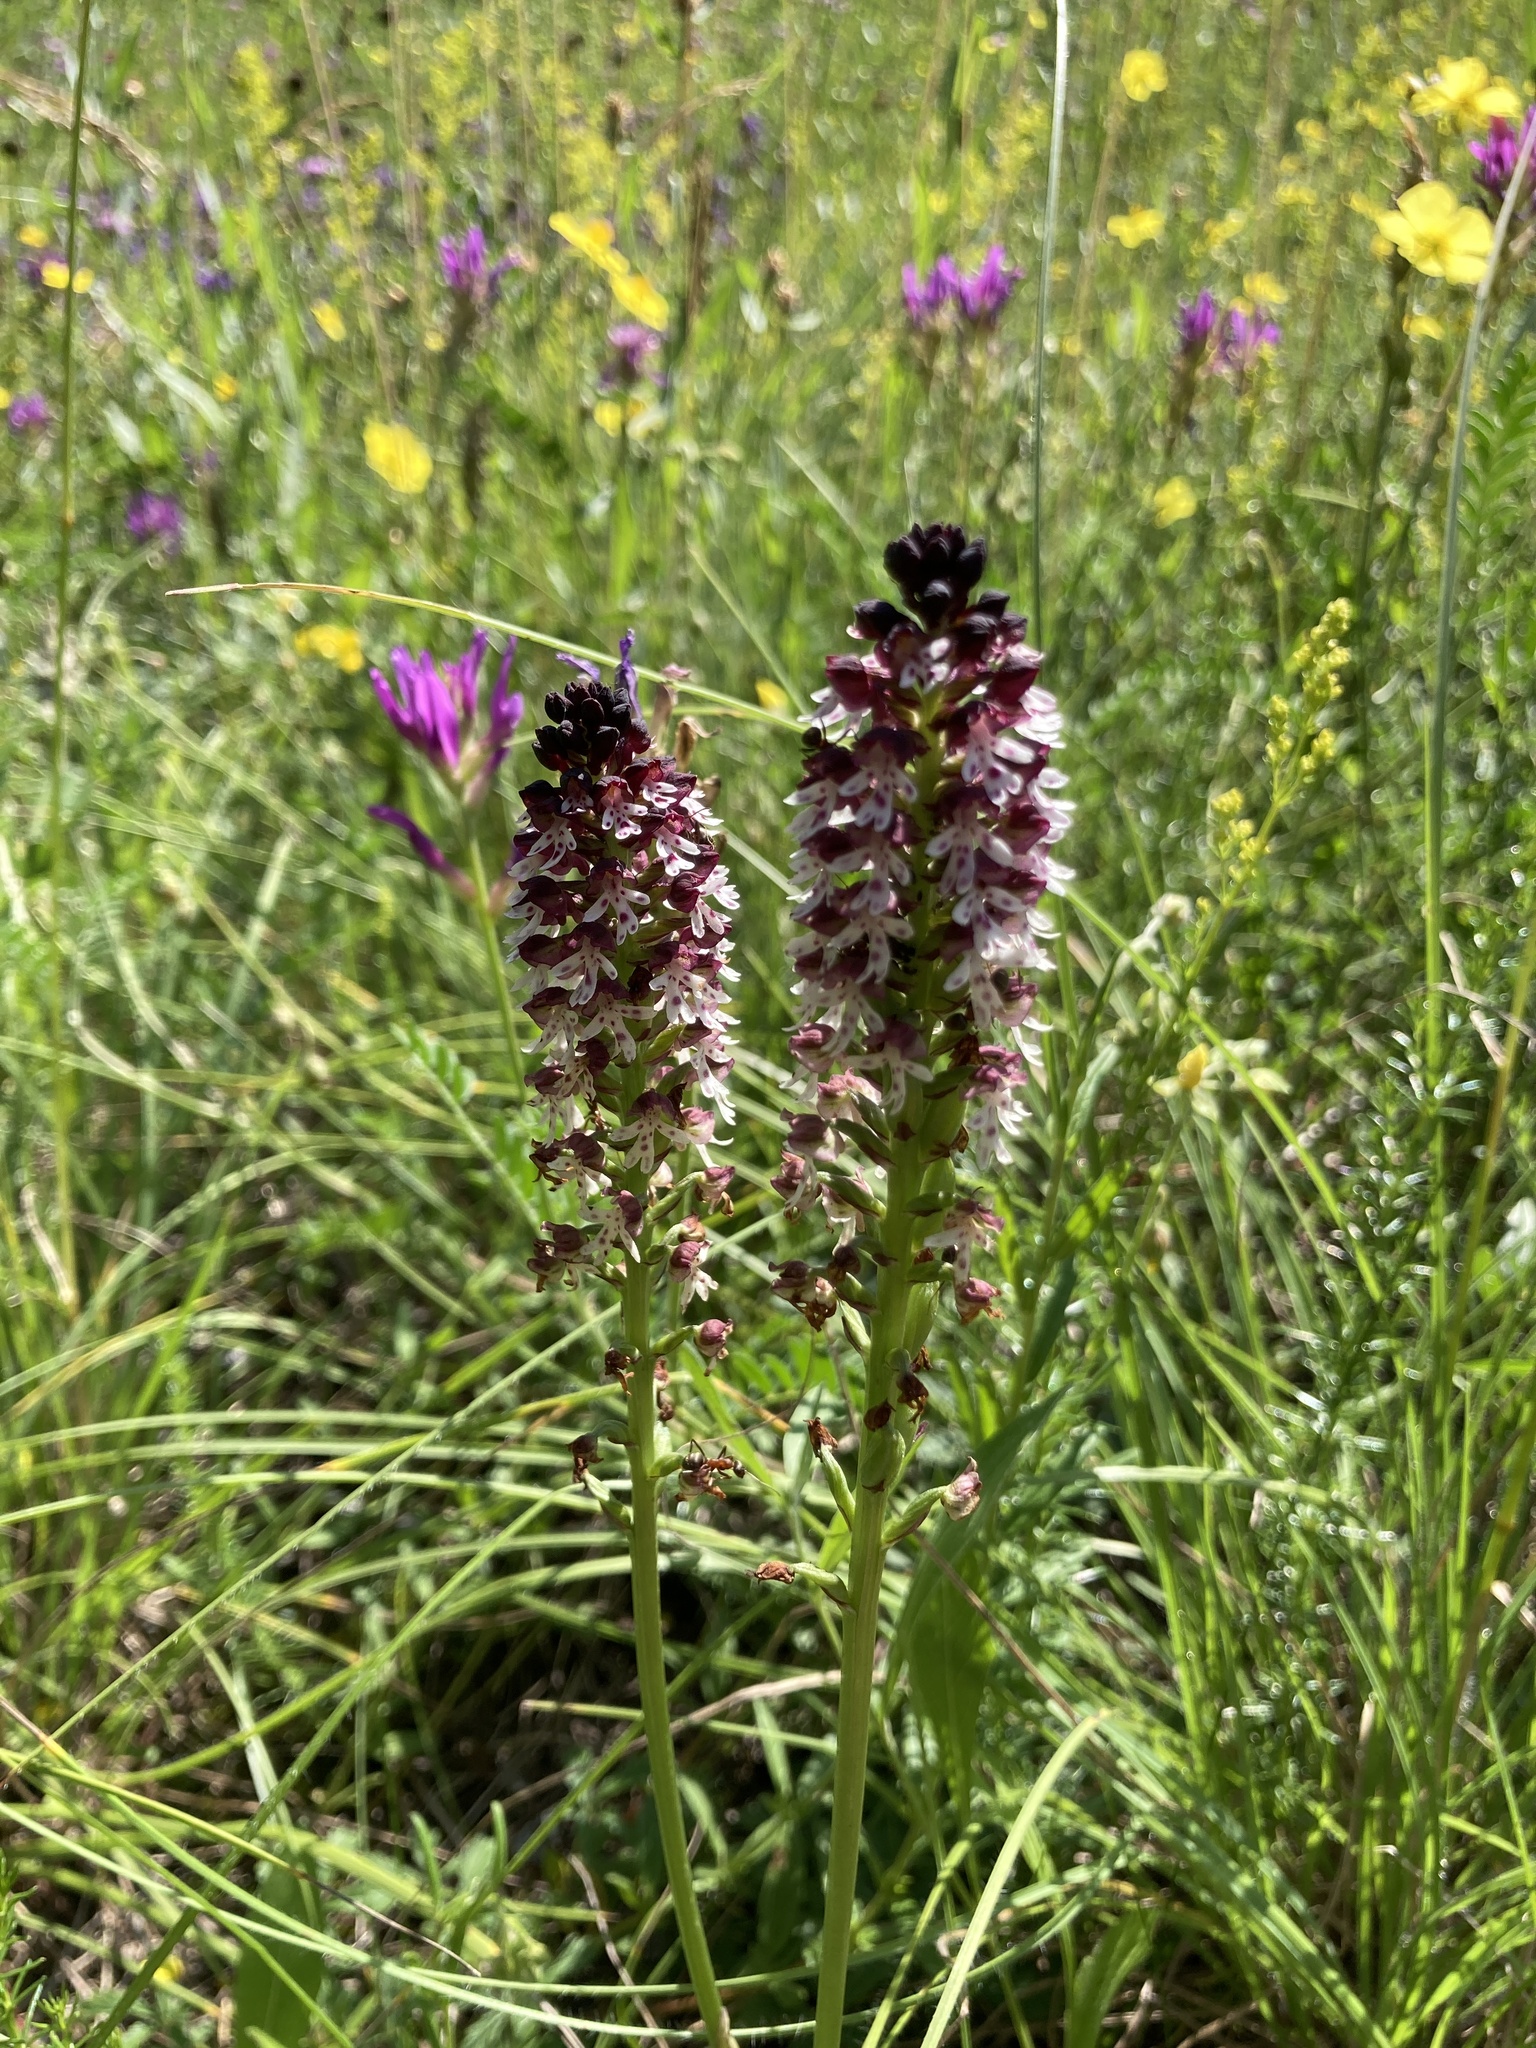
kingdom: Plantae
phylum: Tracheophyta
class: Liliopsida
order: Asparagales
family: Orchidaceae
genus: Neotinea
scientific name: Neotinea ustulata
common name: Burnt orchid
